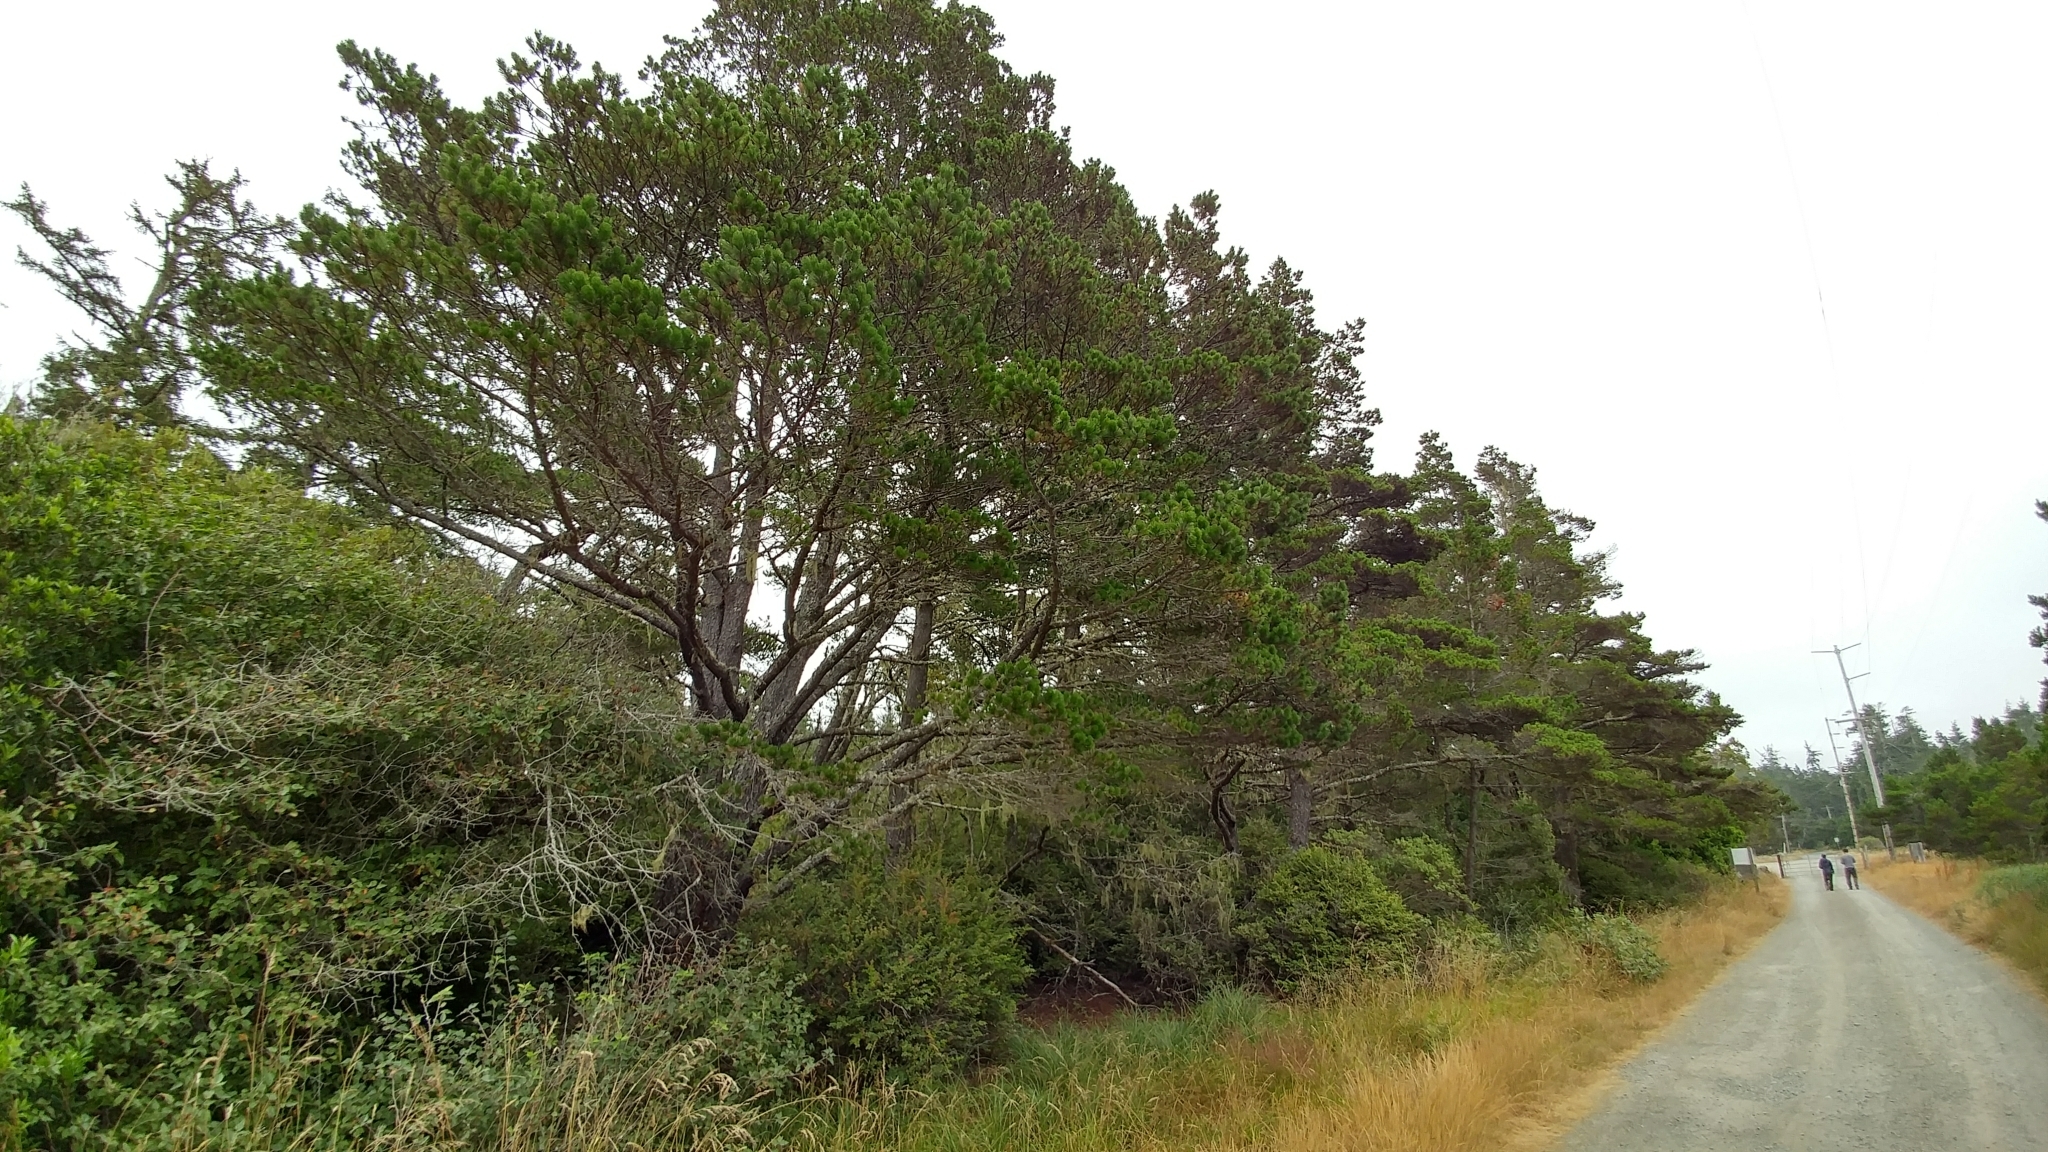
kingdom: Plantae
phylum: Tracheophyta
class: Pinopsida
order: Pinales
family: Pinaceae
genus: Pinus
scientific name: Pinus contorta
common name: Lodgepole pine
